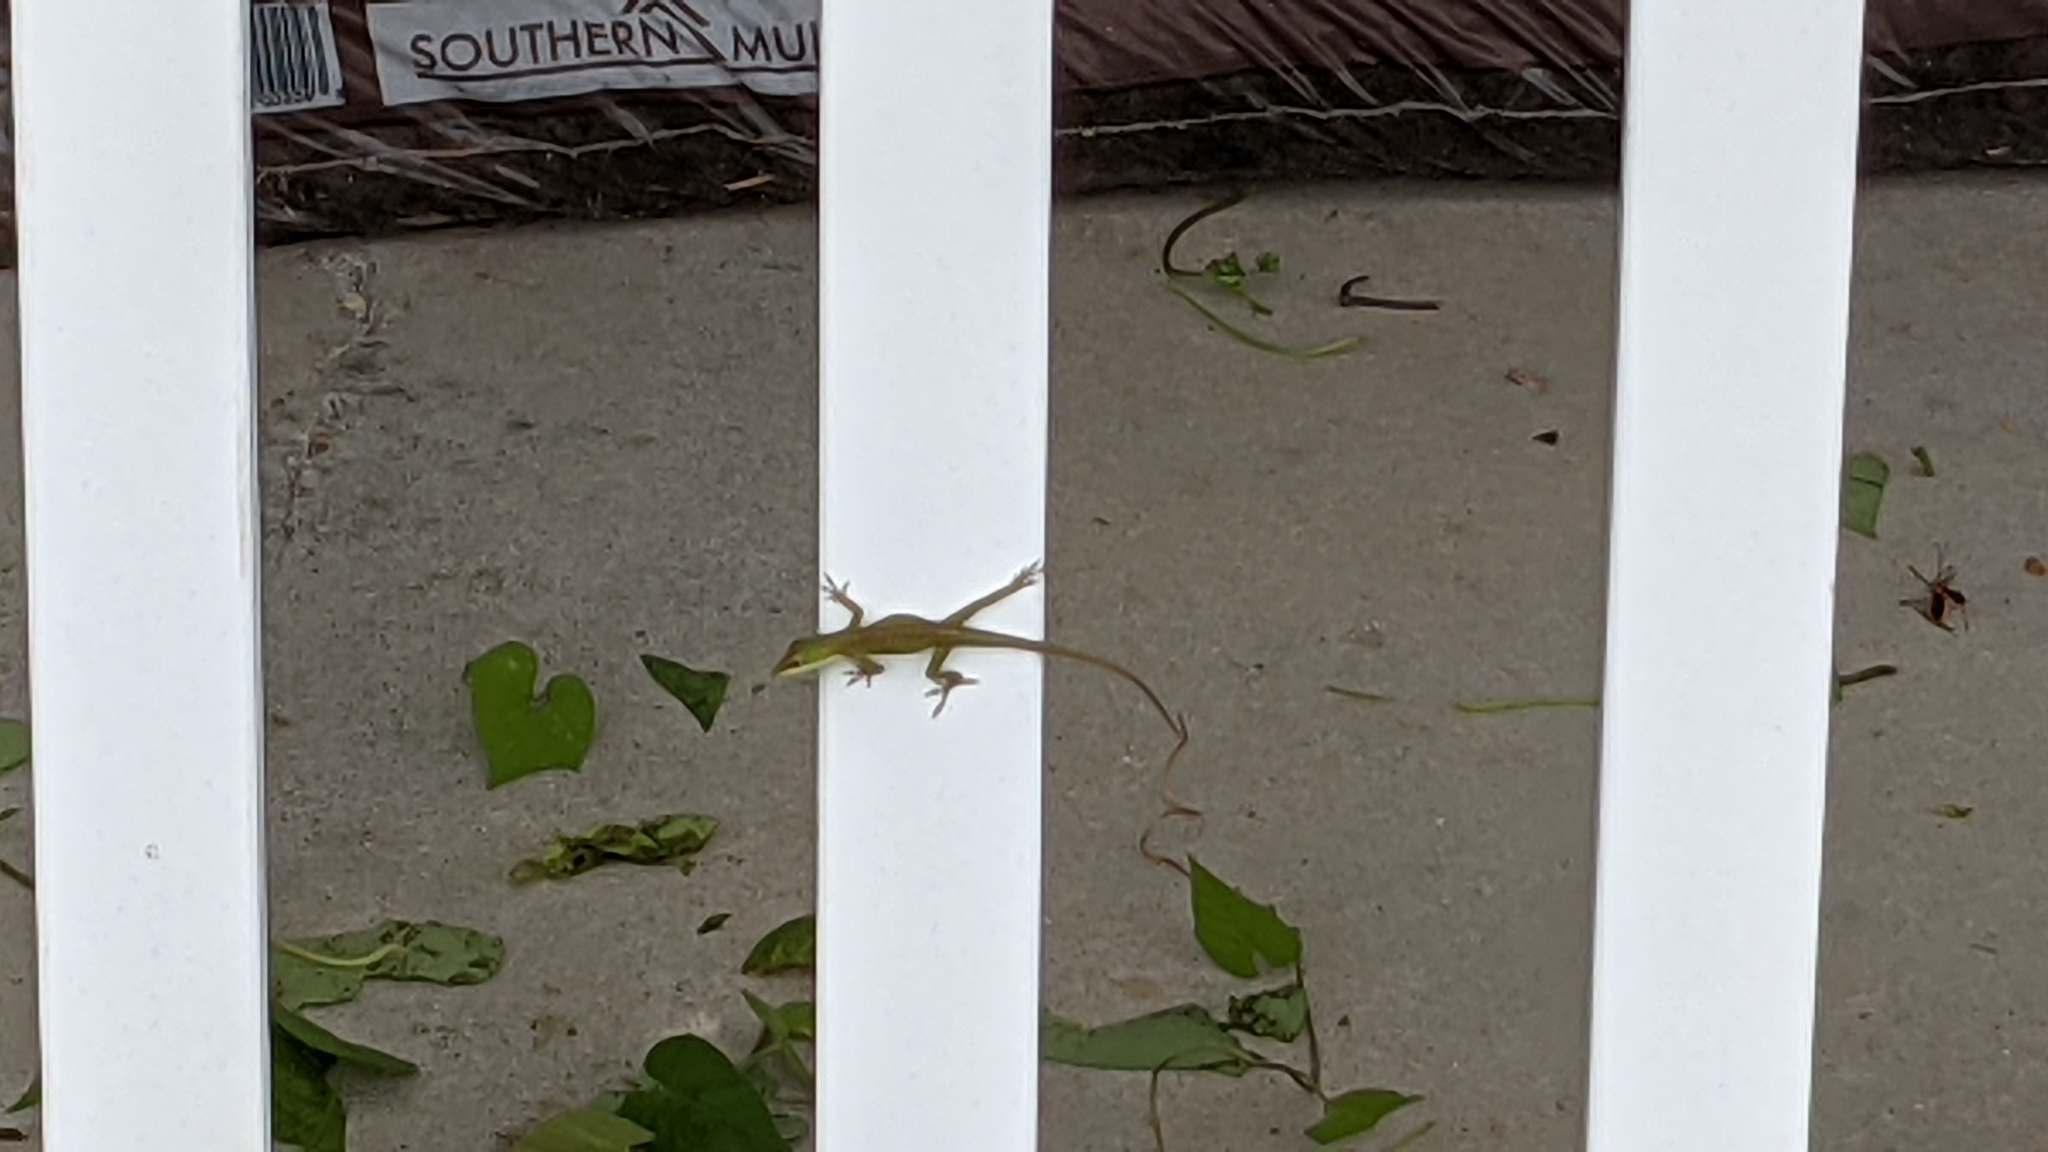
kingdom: Animalia
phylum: Chordata
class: Squamata
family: Dactyloidae
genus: Anolis
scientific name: Anolis carolinensis
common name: Green anole
